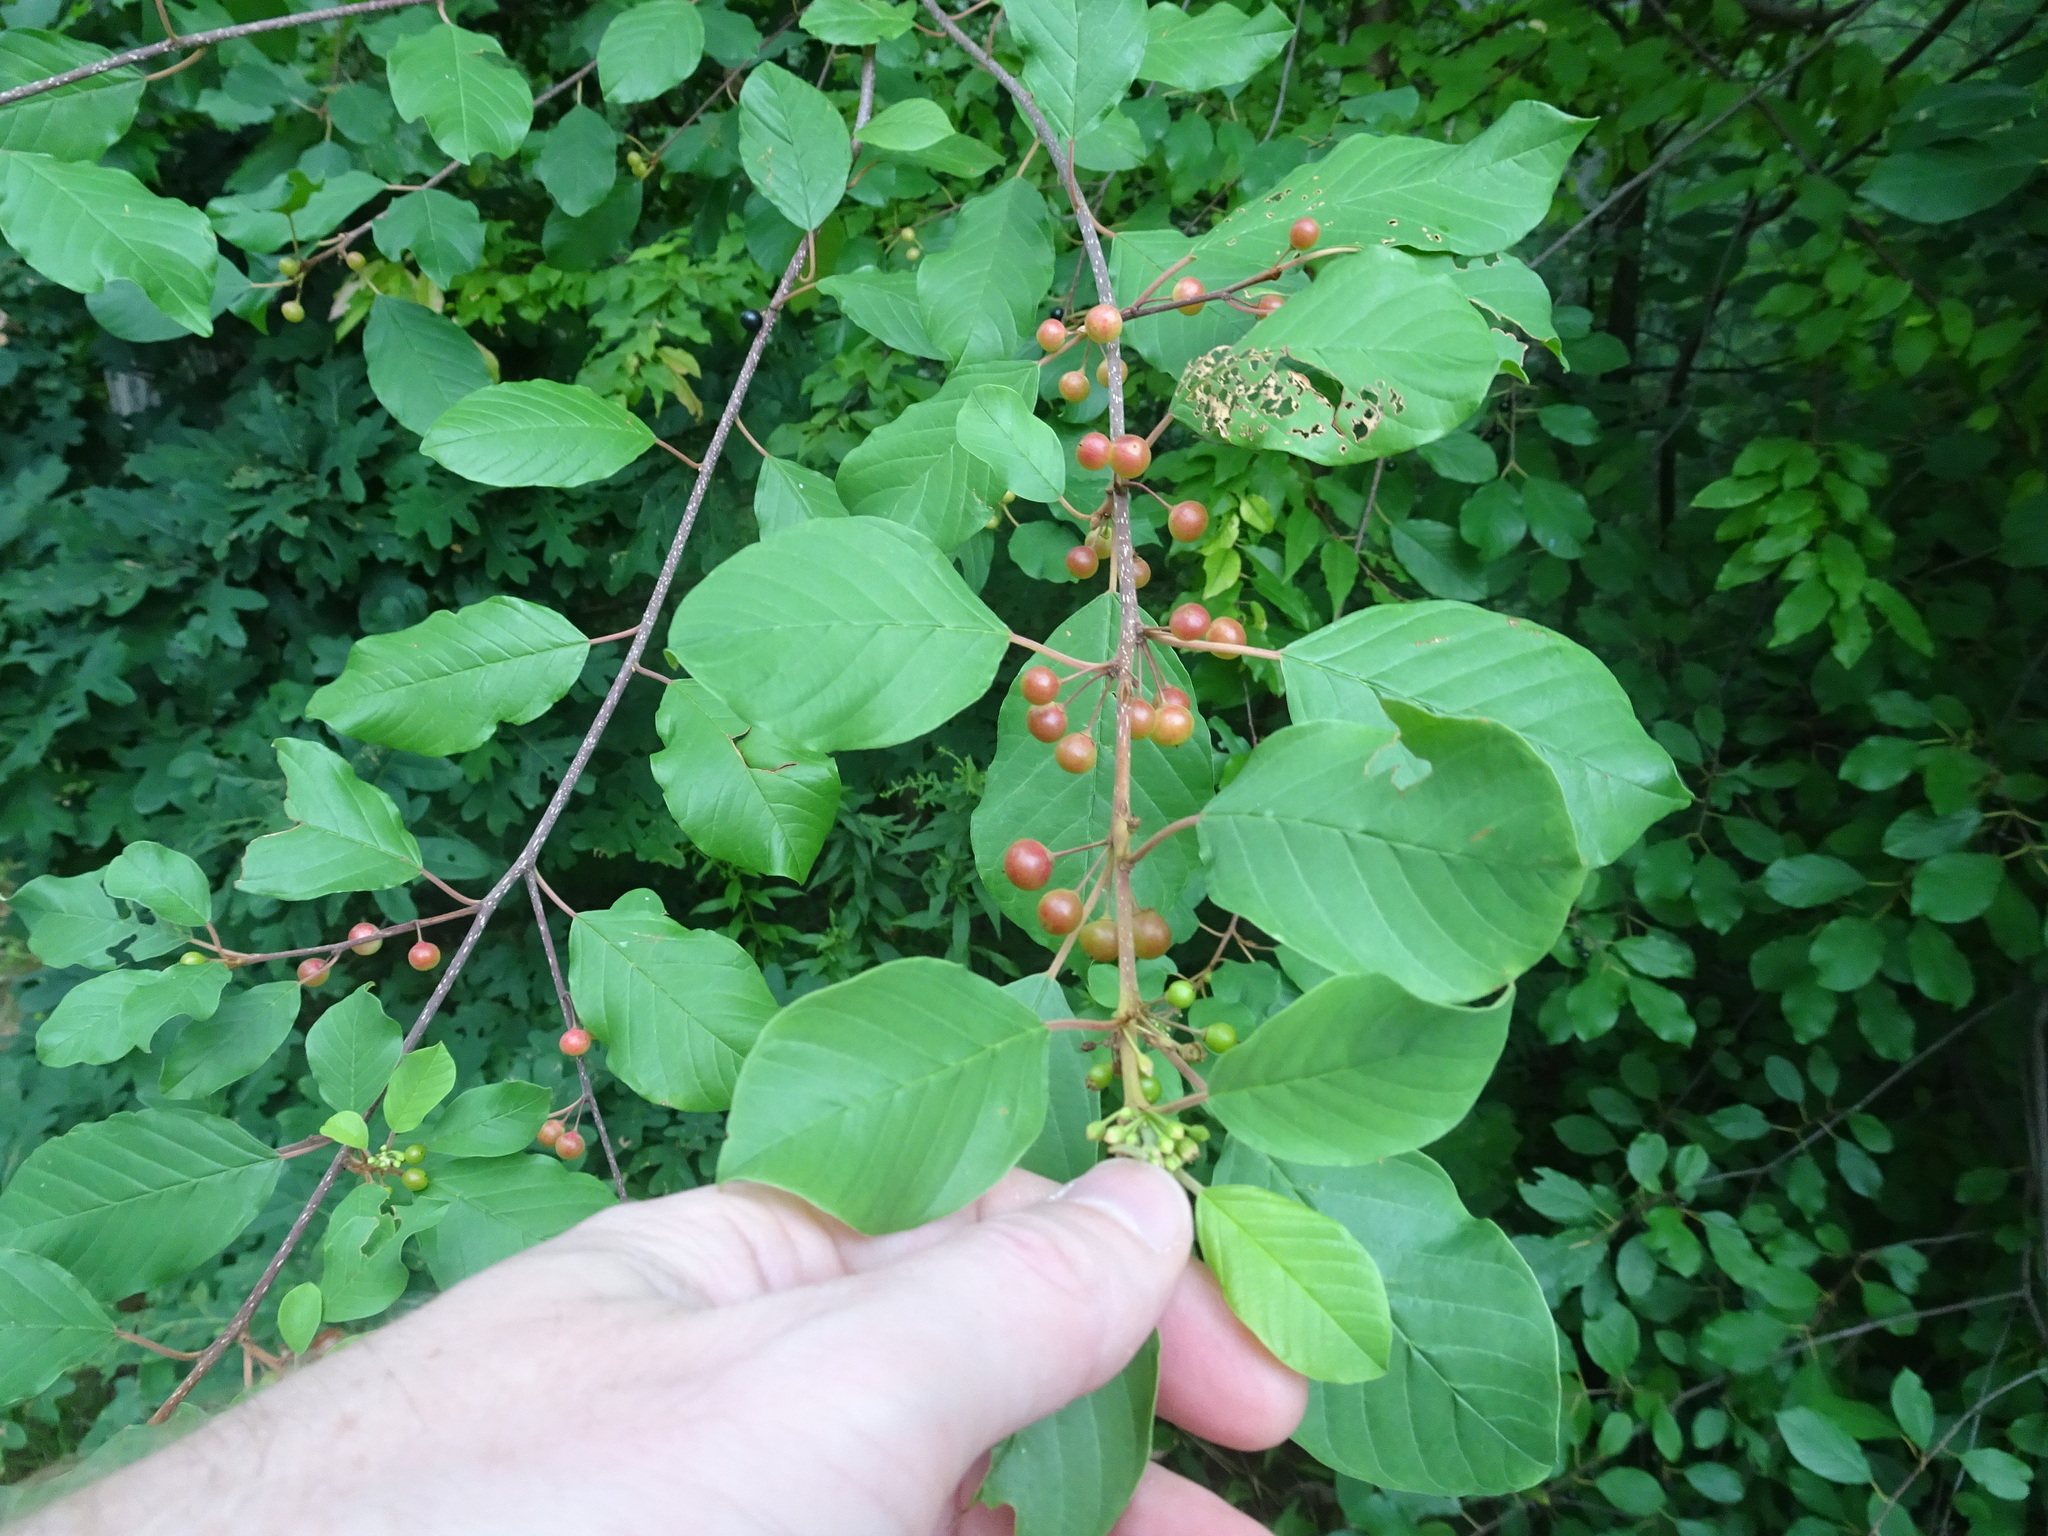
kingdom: Plantae
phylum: Tracheophyta
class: Magnoliopsida
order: Rosales
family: Rhamnaceae
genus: Frangula
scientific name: Frangula alnus
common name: Alder buckthorn
